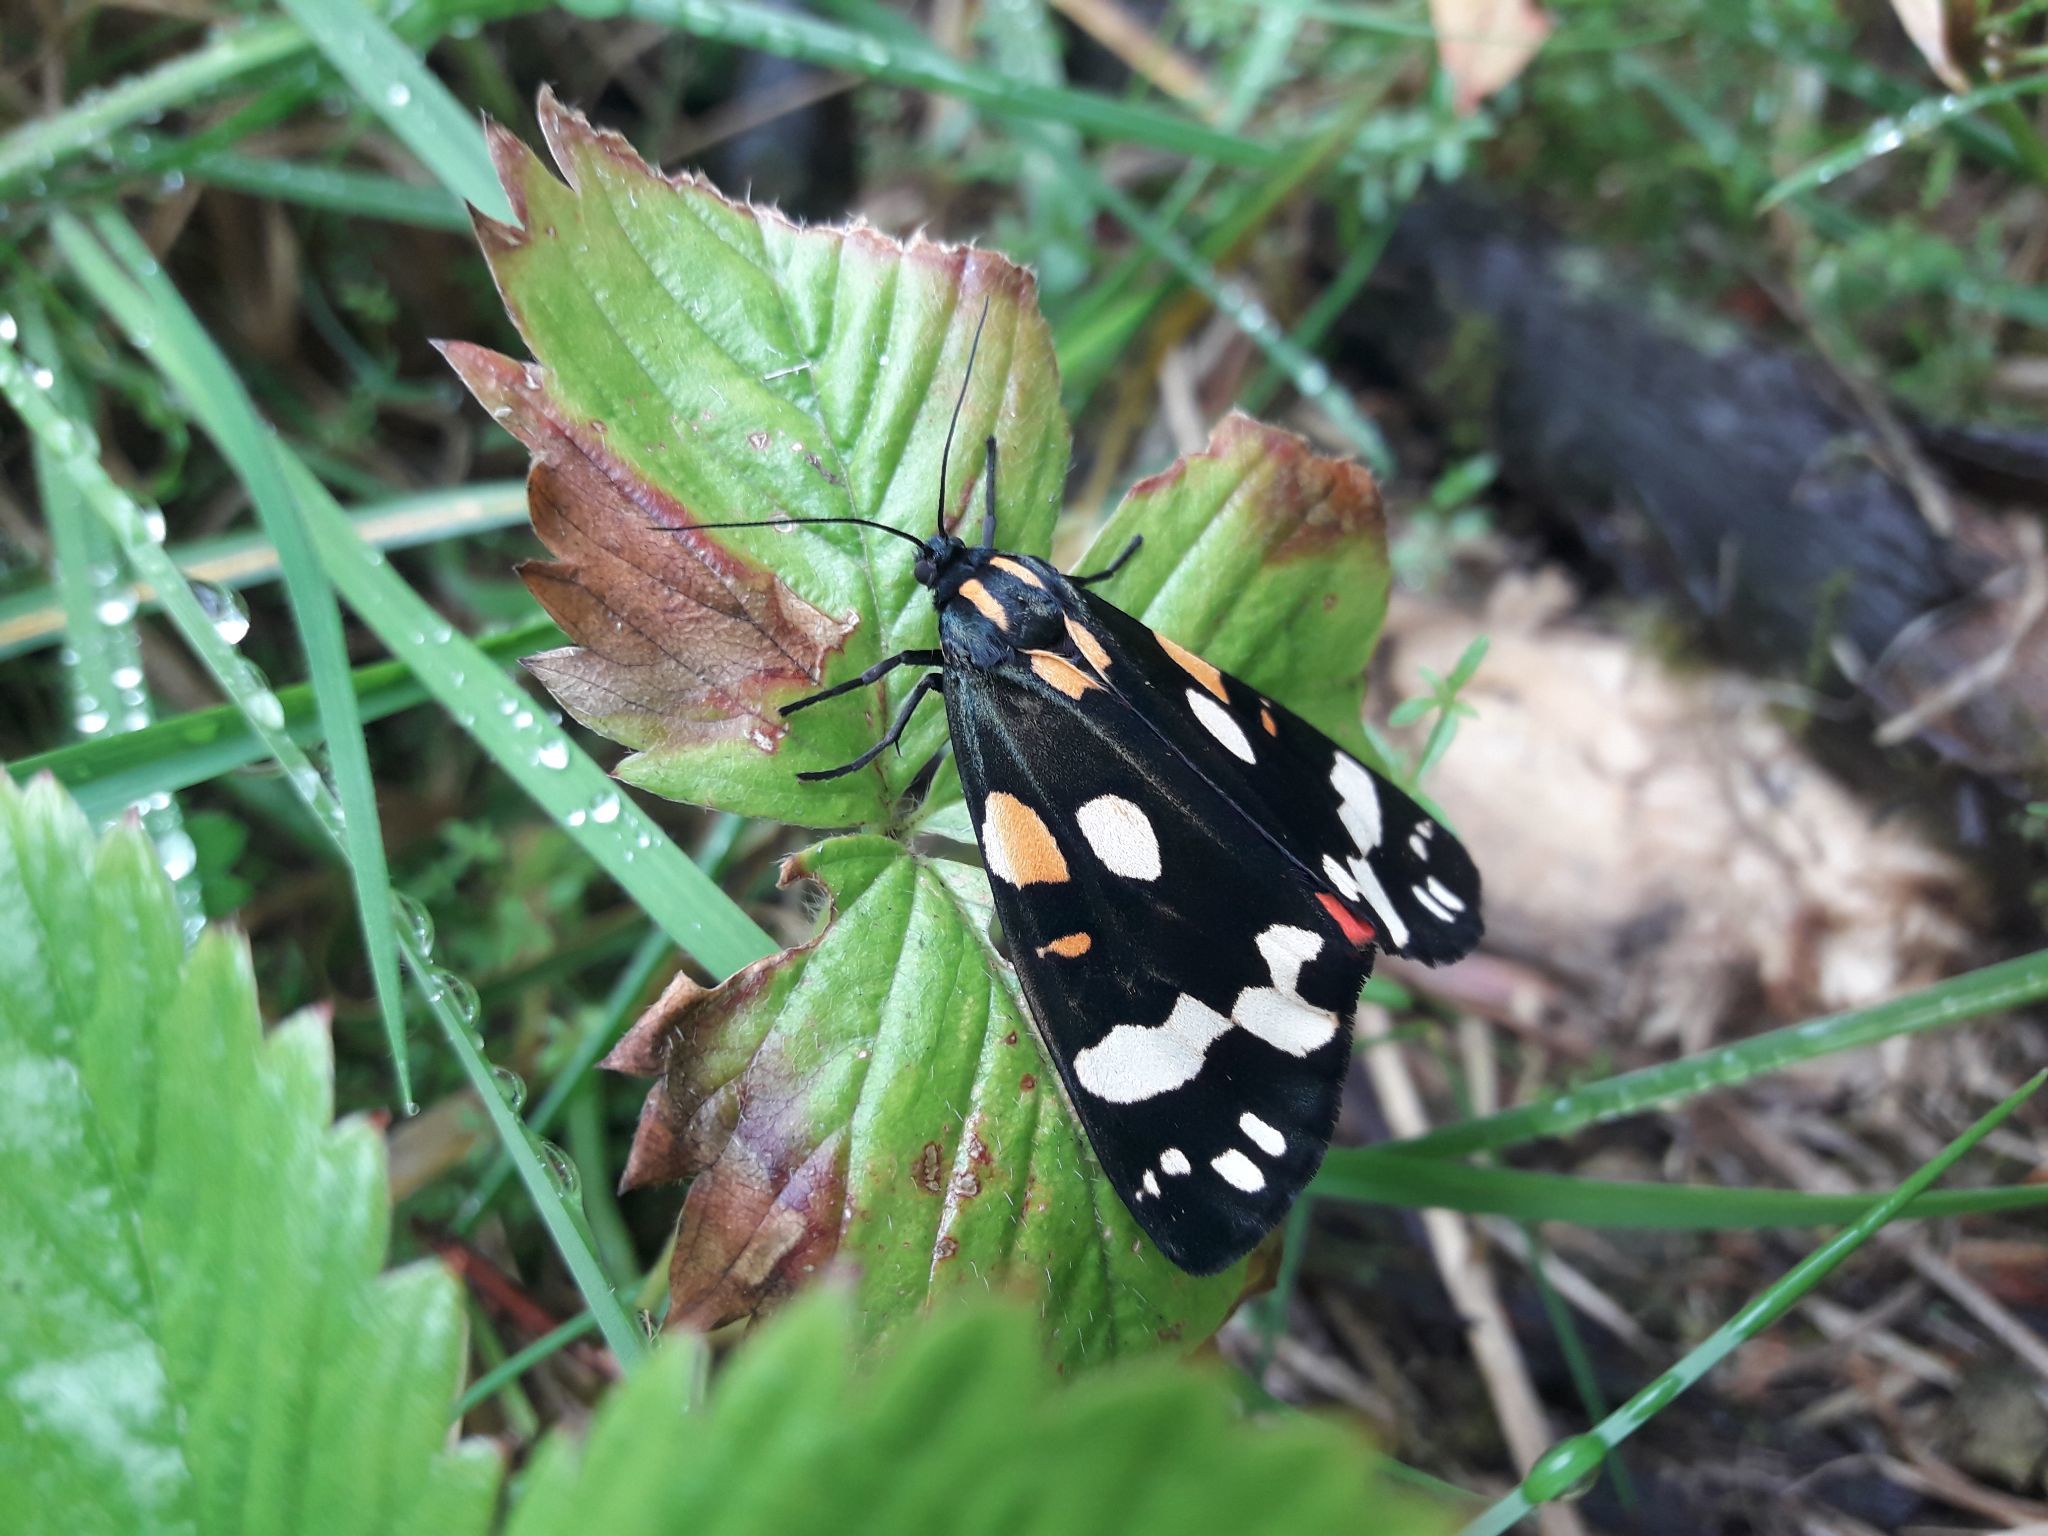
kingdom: Animalia
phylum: Arthropoda
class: Insecta
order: Lepidoptera
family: Erebidae
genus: Callimorpha
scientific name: Callimorpha dominula
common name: Scarlet tiger
